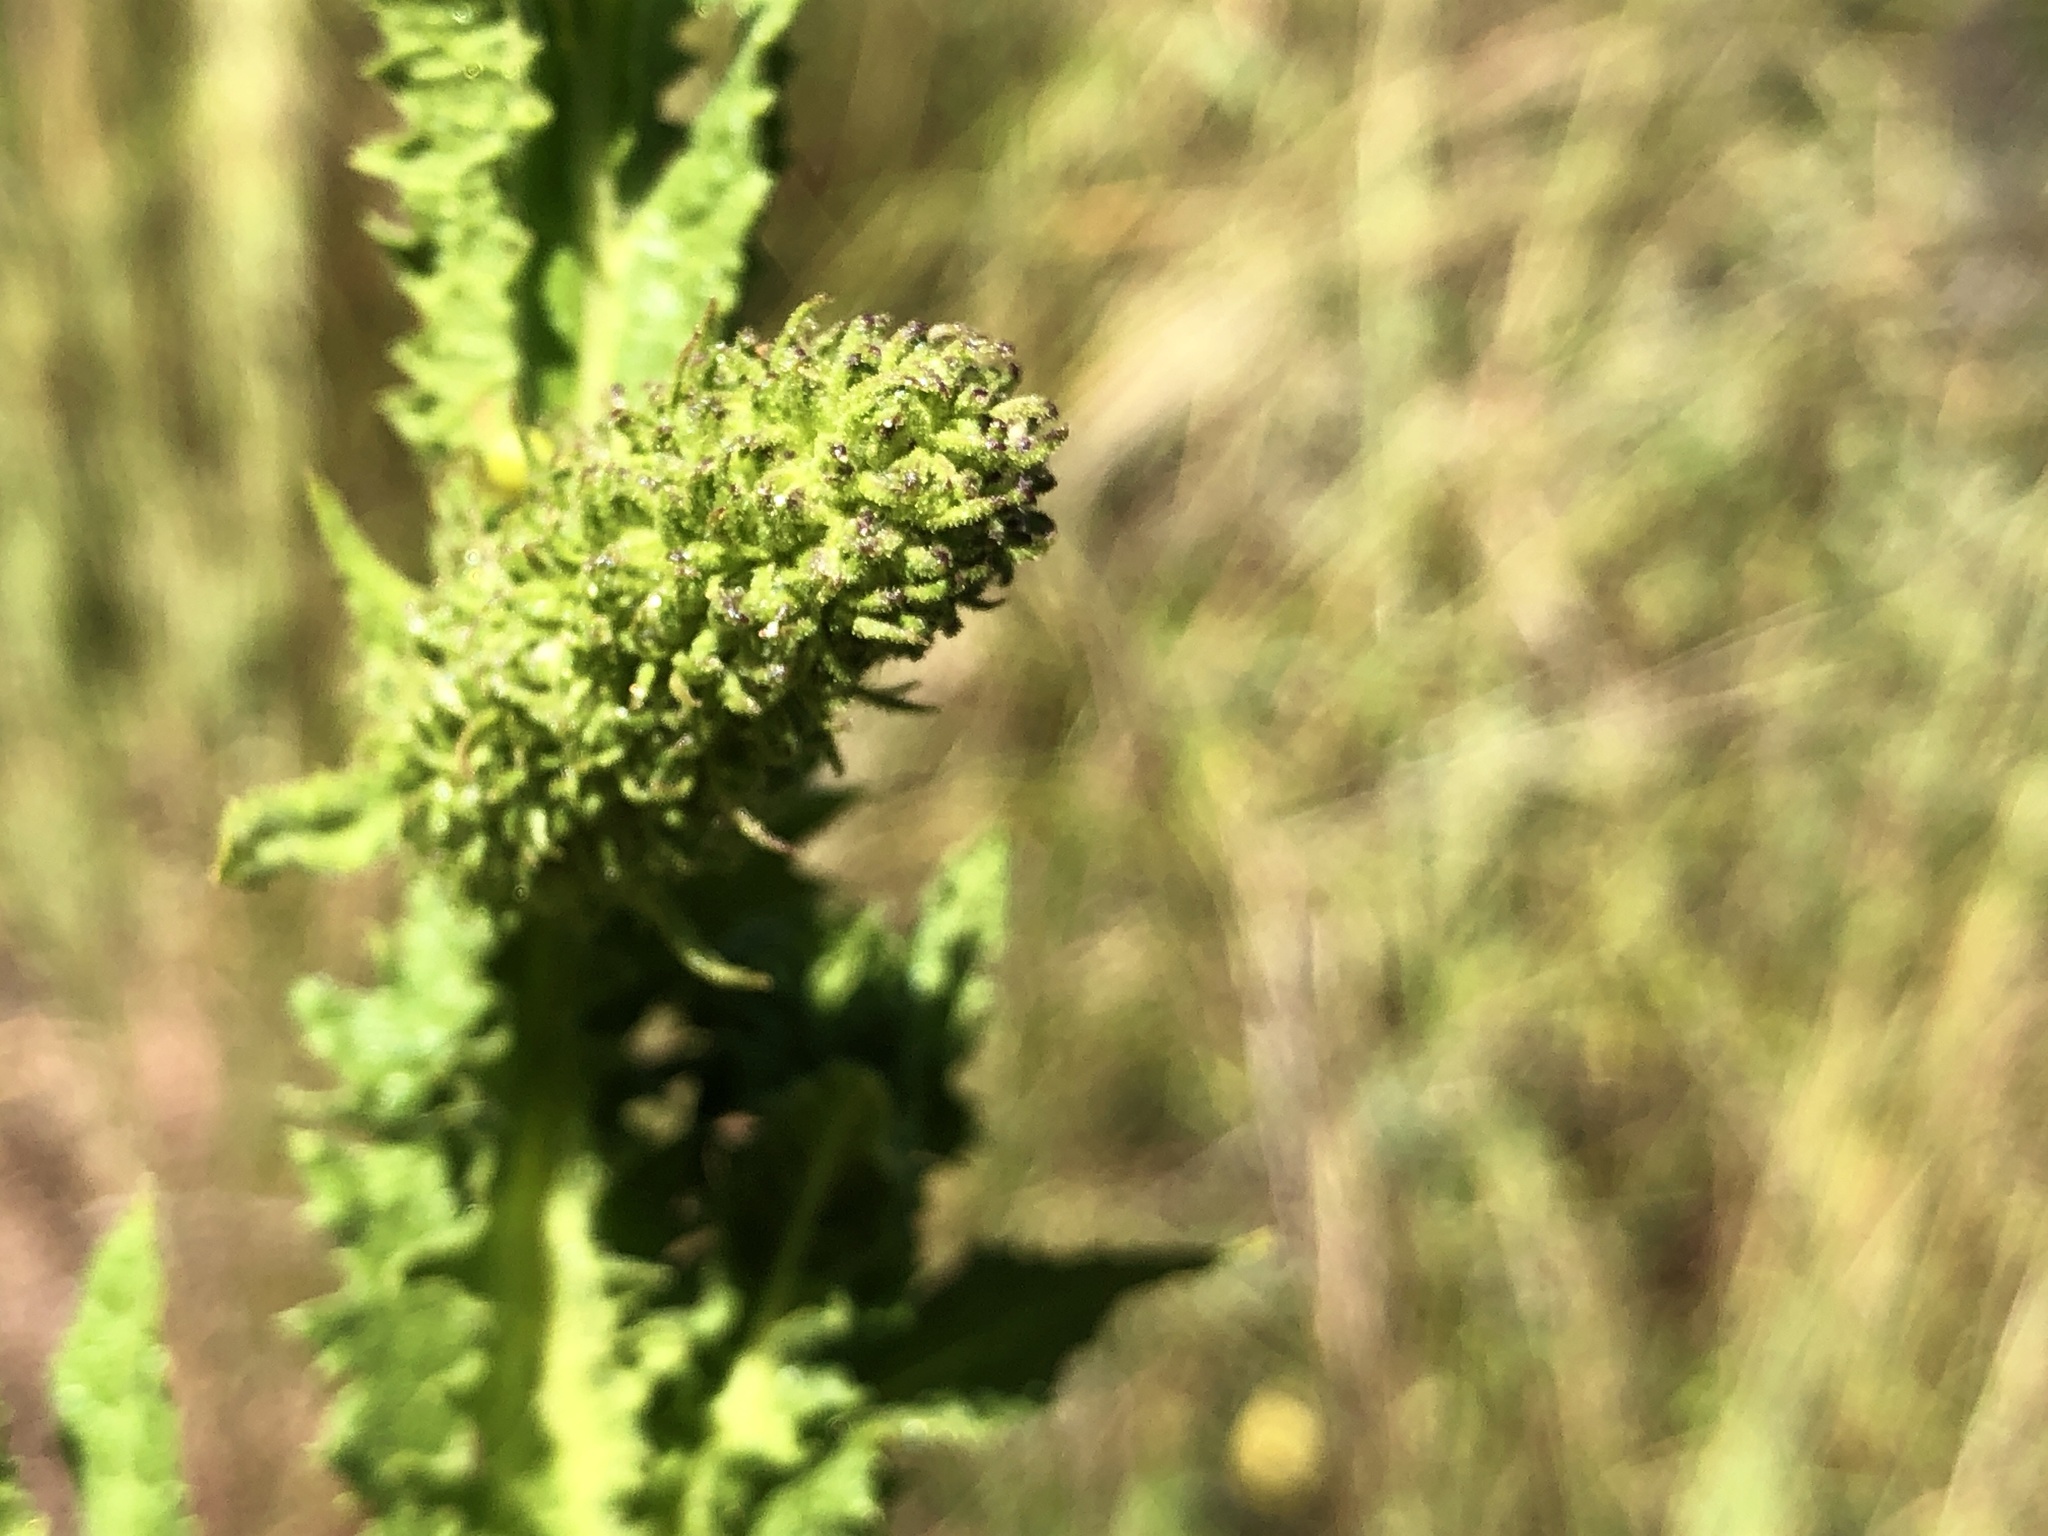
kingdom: Plantae
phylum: Tracheophyta
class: Magnoliopsida
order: Asterales
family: Asteraceae
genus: Pterocaulon
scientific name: Pterocaulon serrulatum
